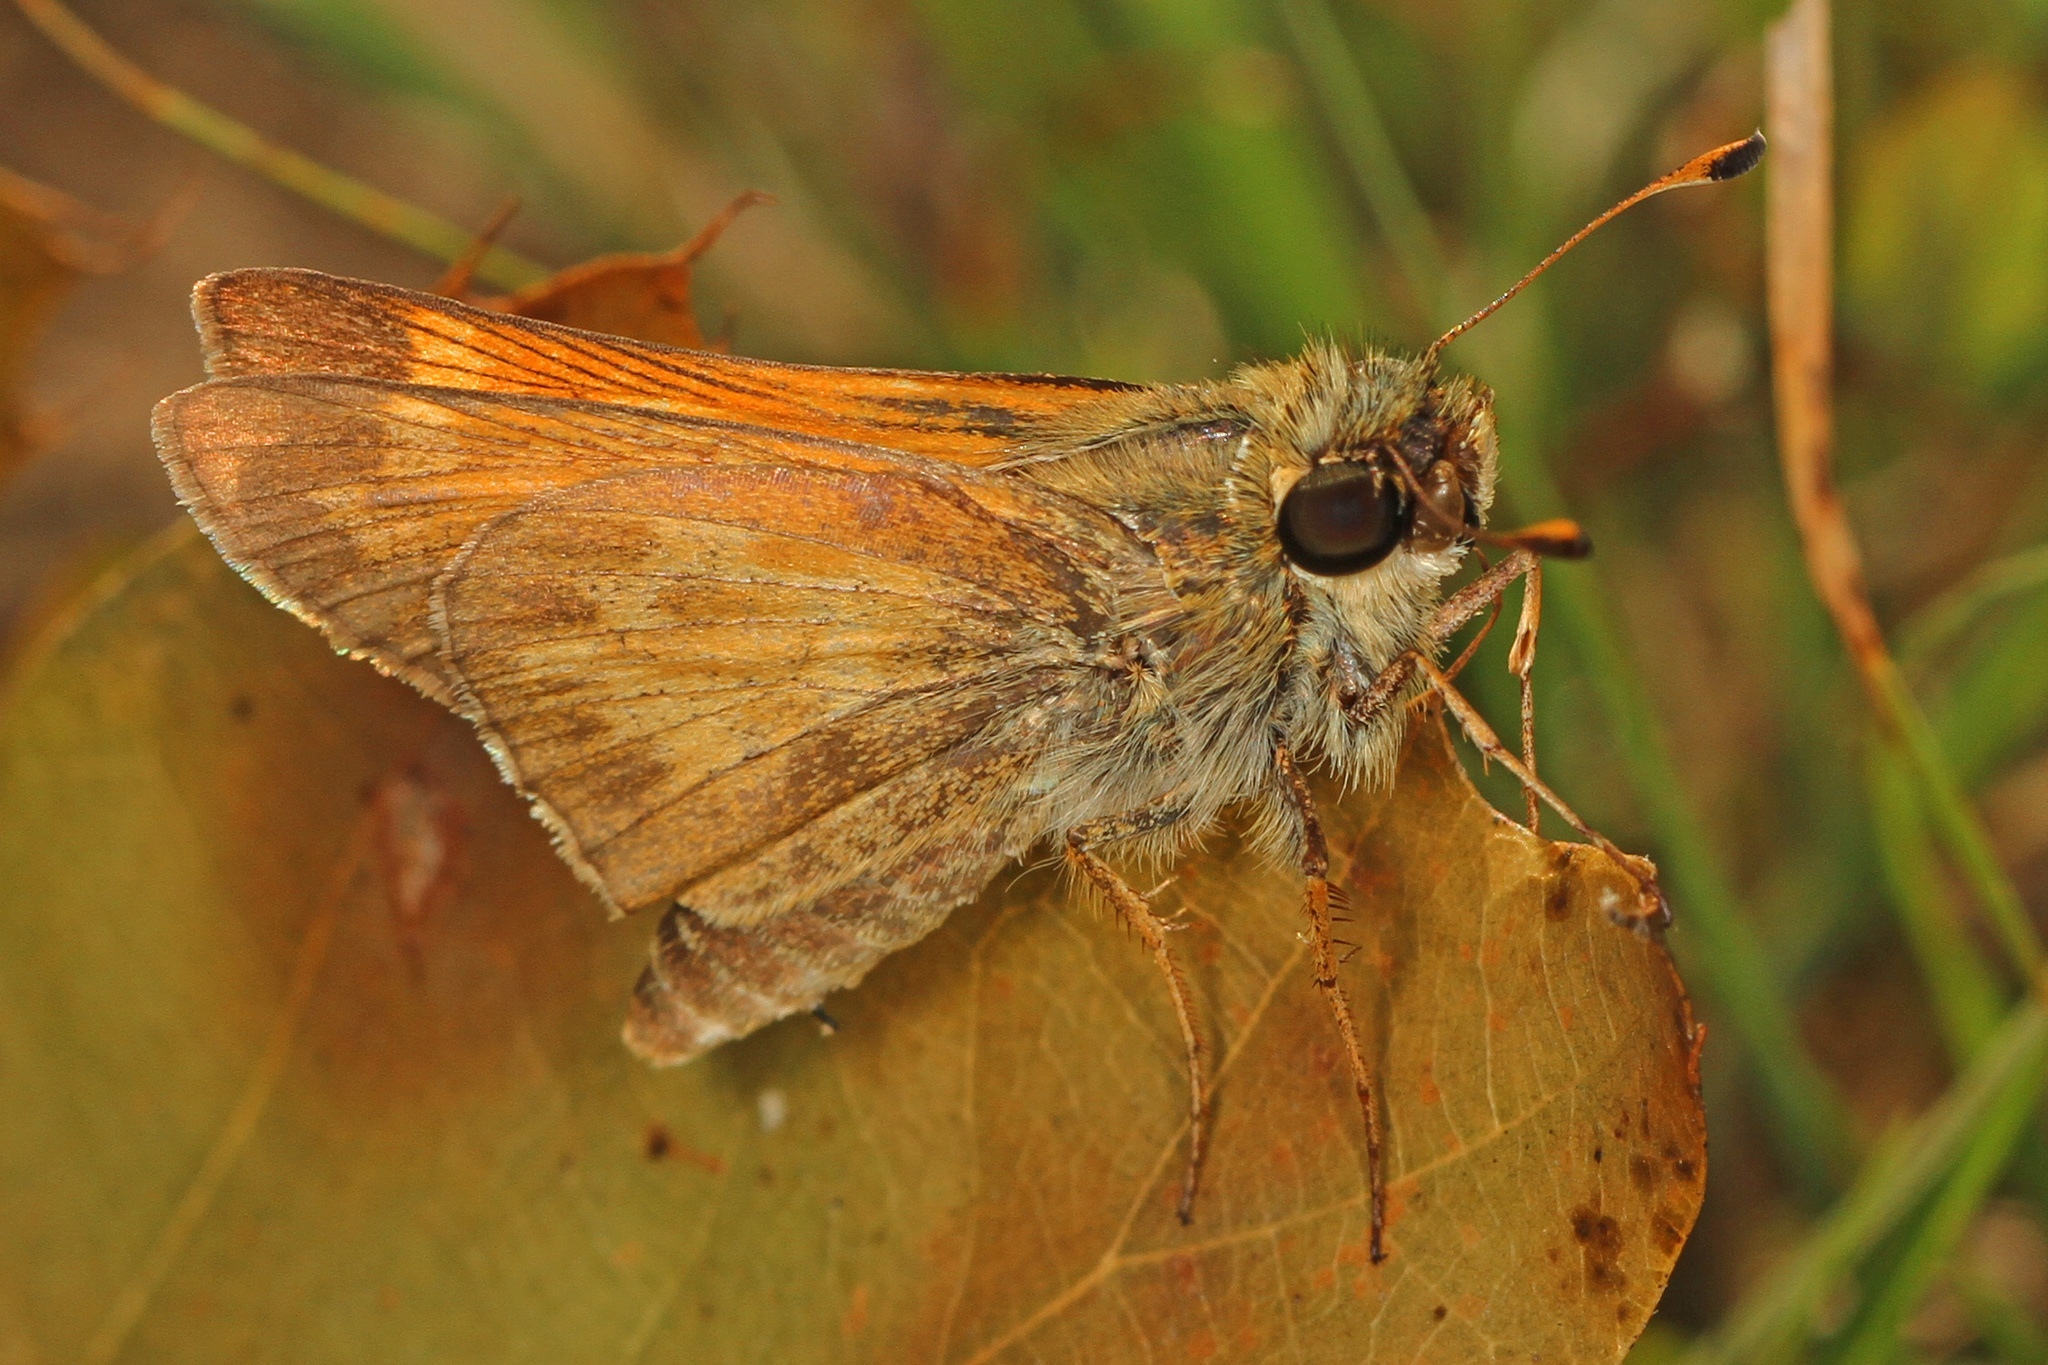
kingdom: Animalia
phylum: Arthropoda
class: Insecta
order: Lepidoptera
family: Hesperiidae
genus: Atalopedes
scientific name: Atalopedes
